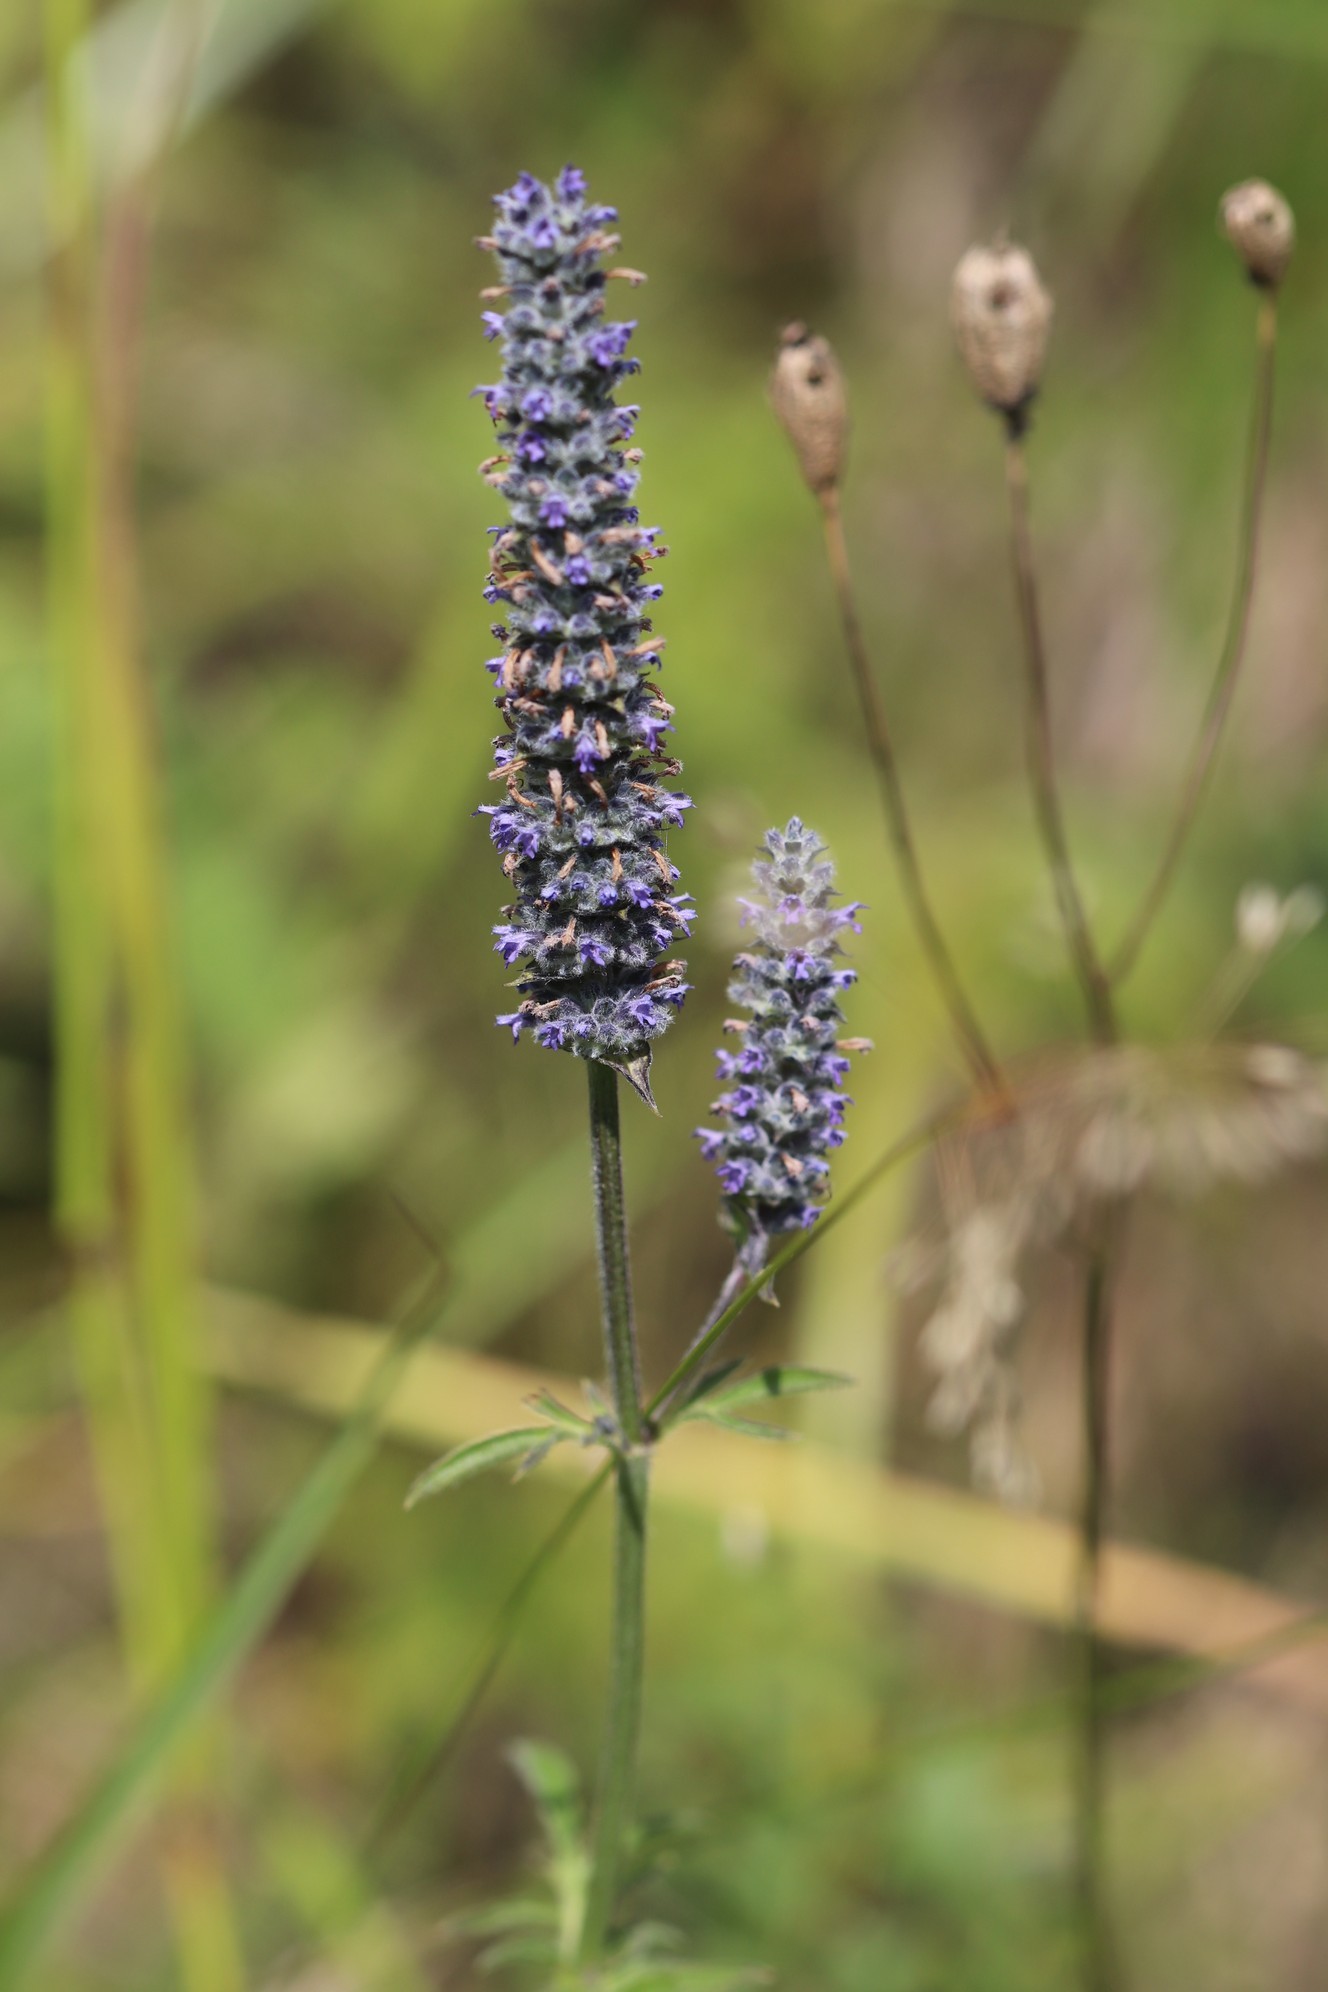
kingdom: Plantae
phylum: Tracheophyta
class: Magnoliopsida
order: Lamiales
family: Lamiaceae
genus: Nepeta
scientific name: Nepeta multifida
